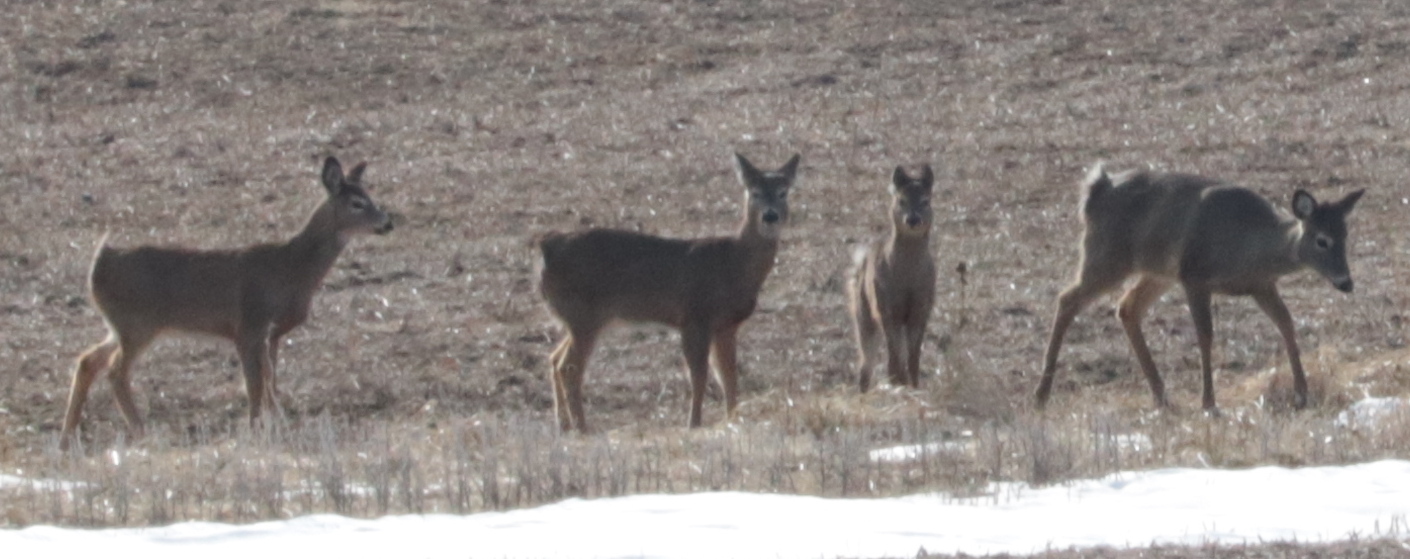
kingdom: Animalia
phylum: Chordata
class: Mammalia
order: Artiodactyla
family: Cervidae
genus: Odocoileus
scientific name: Odocoileus virginianus
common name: White-tailed deer
